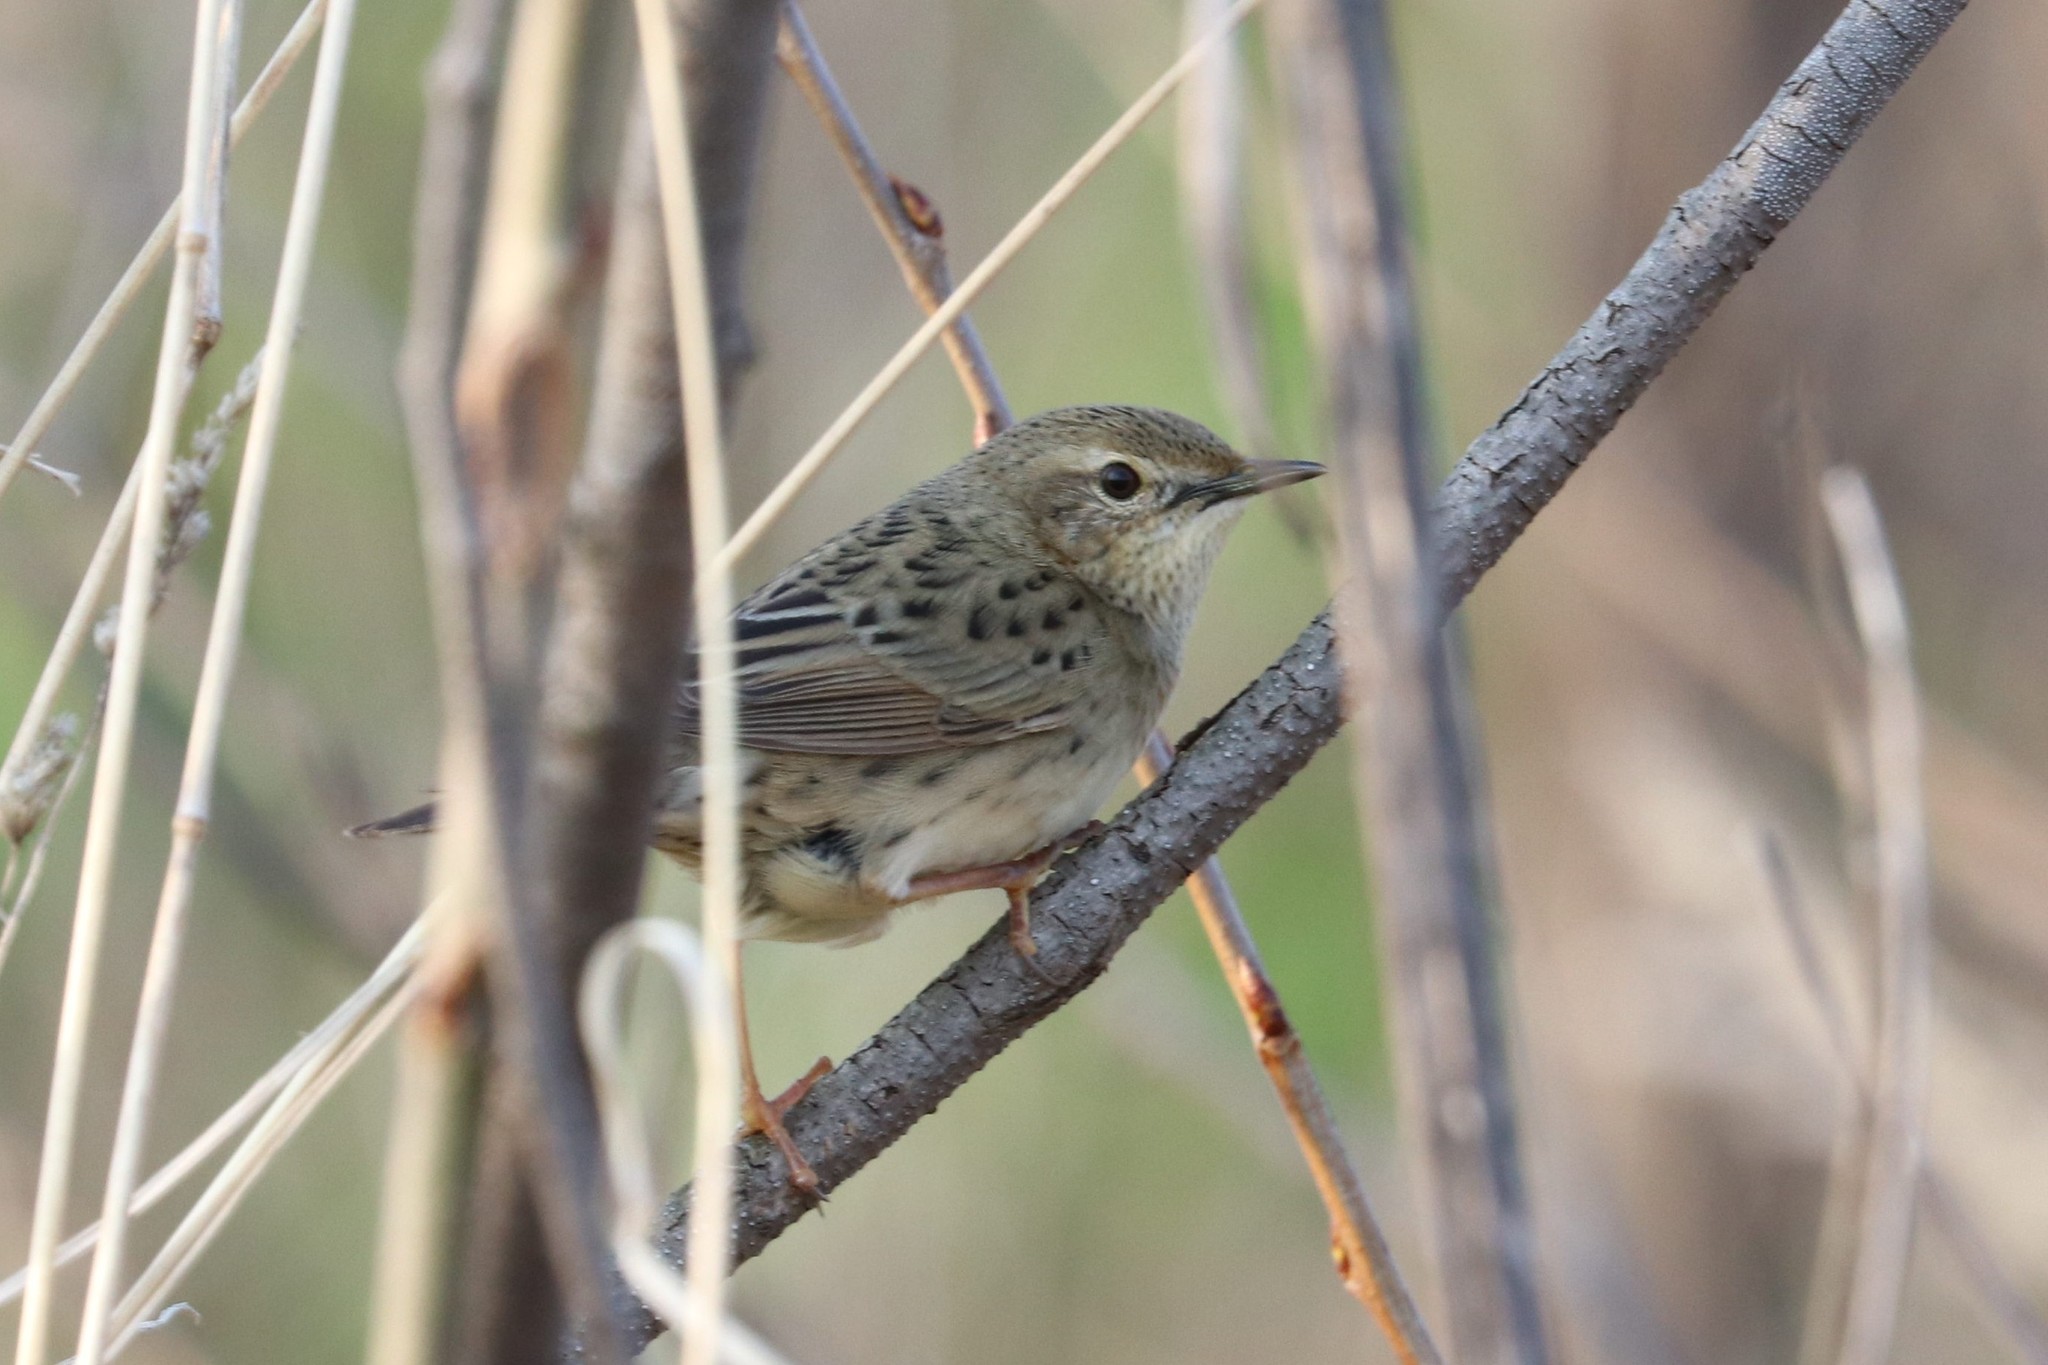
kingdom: Animalia
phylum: Chordata
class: Aves
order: Passeriformes
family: Locustellidae
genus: Locustella
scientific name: Locustella naevia
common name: Common grasshopper warbler
